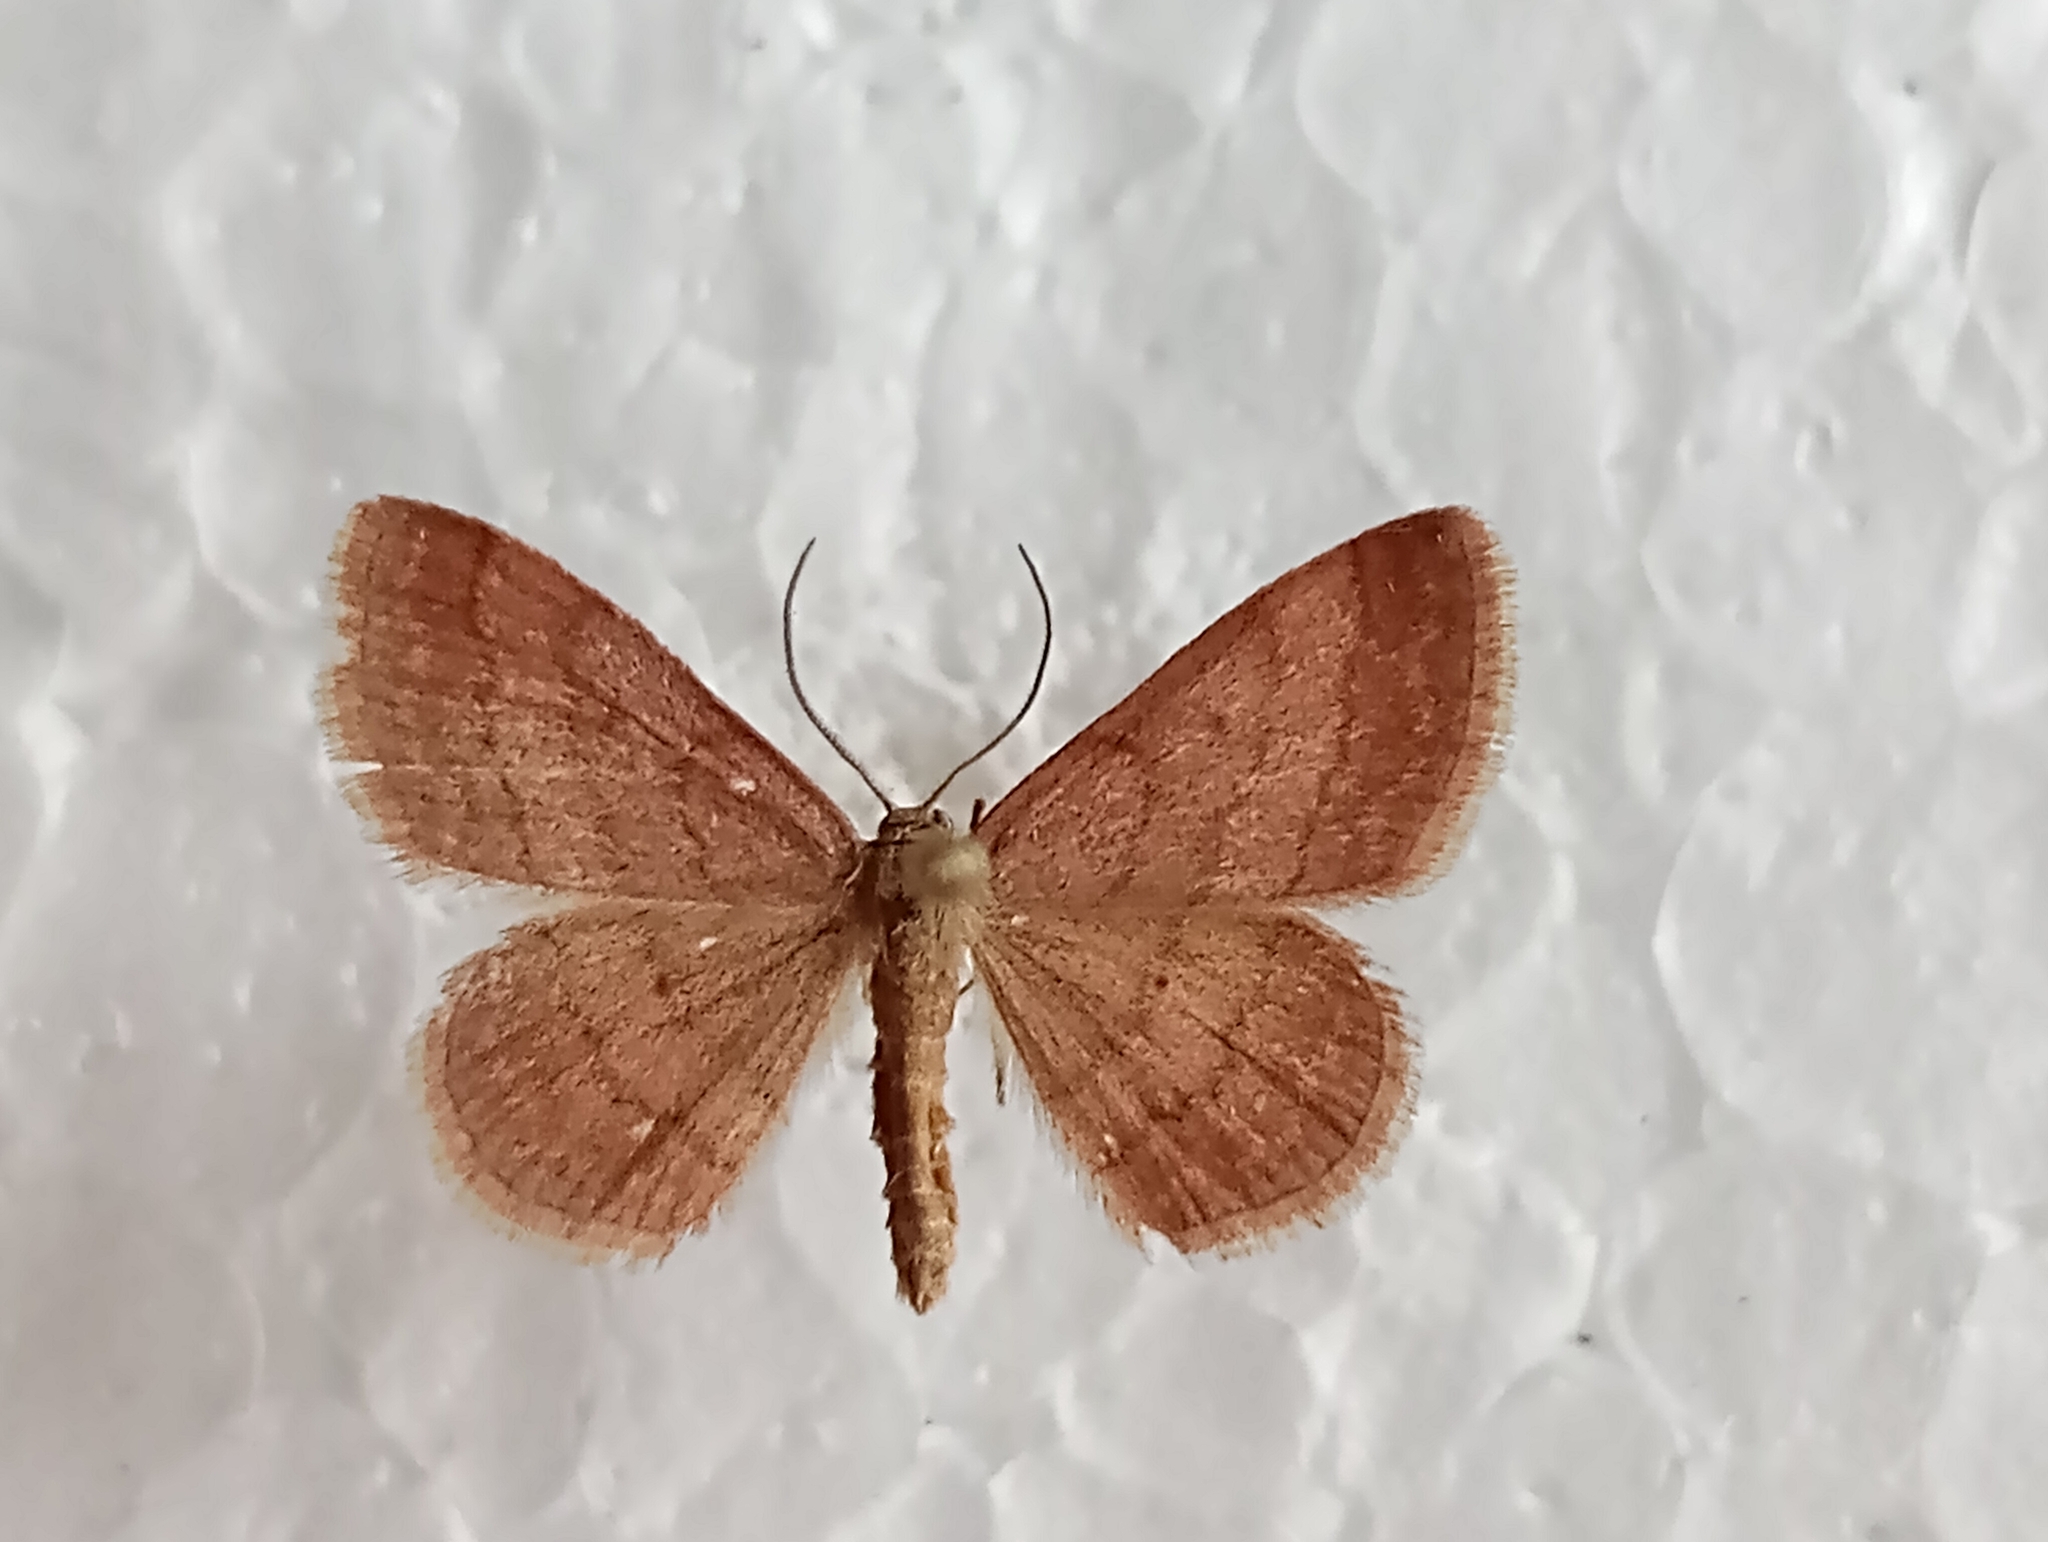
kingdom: Animalia
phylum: Arthropoda
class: Insecta
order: Lepidoptera
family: Geometridae
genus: Scopula
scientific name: Scopula rubiginata
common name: Tawny wave
